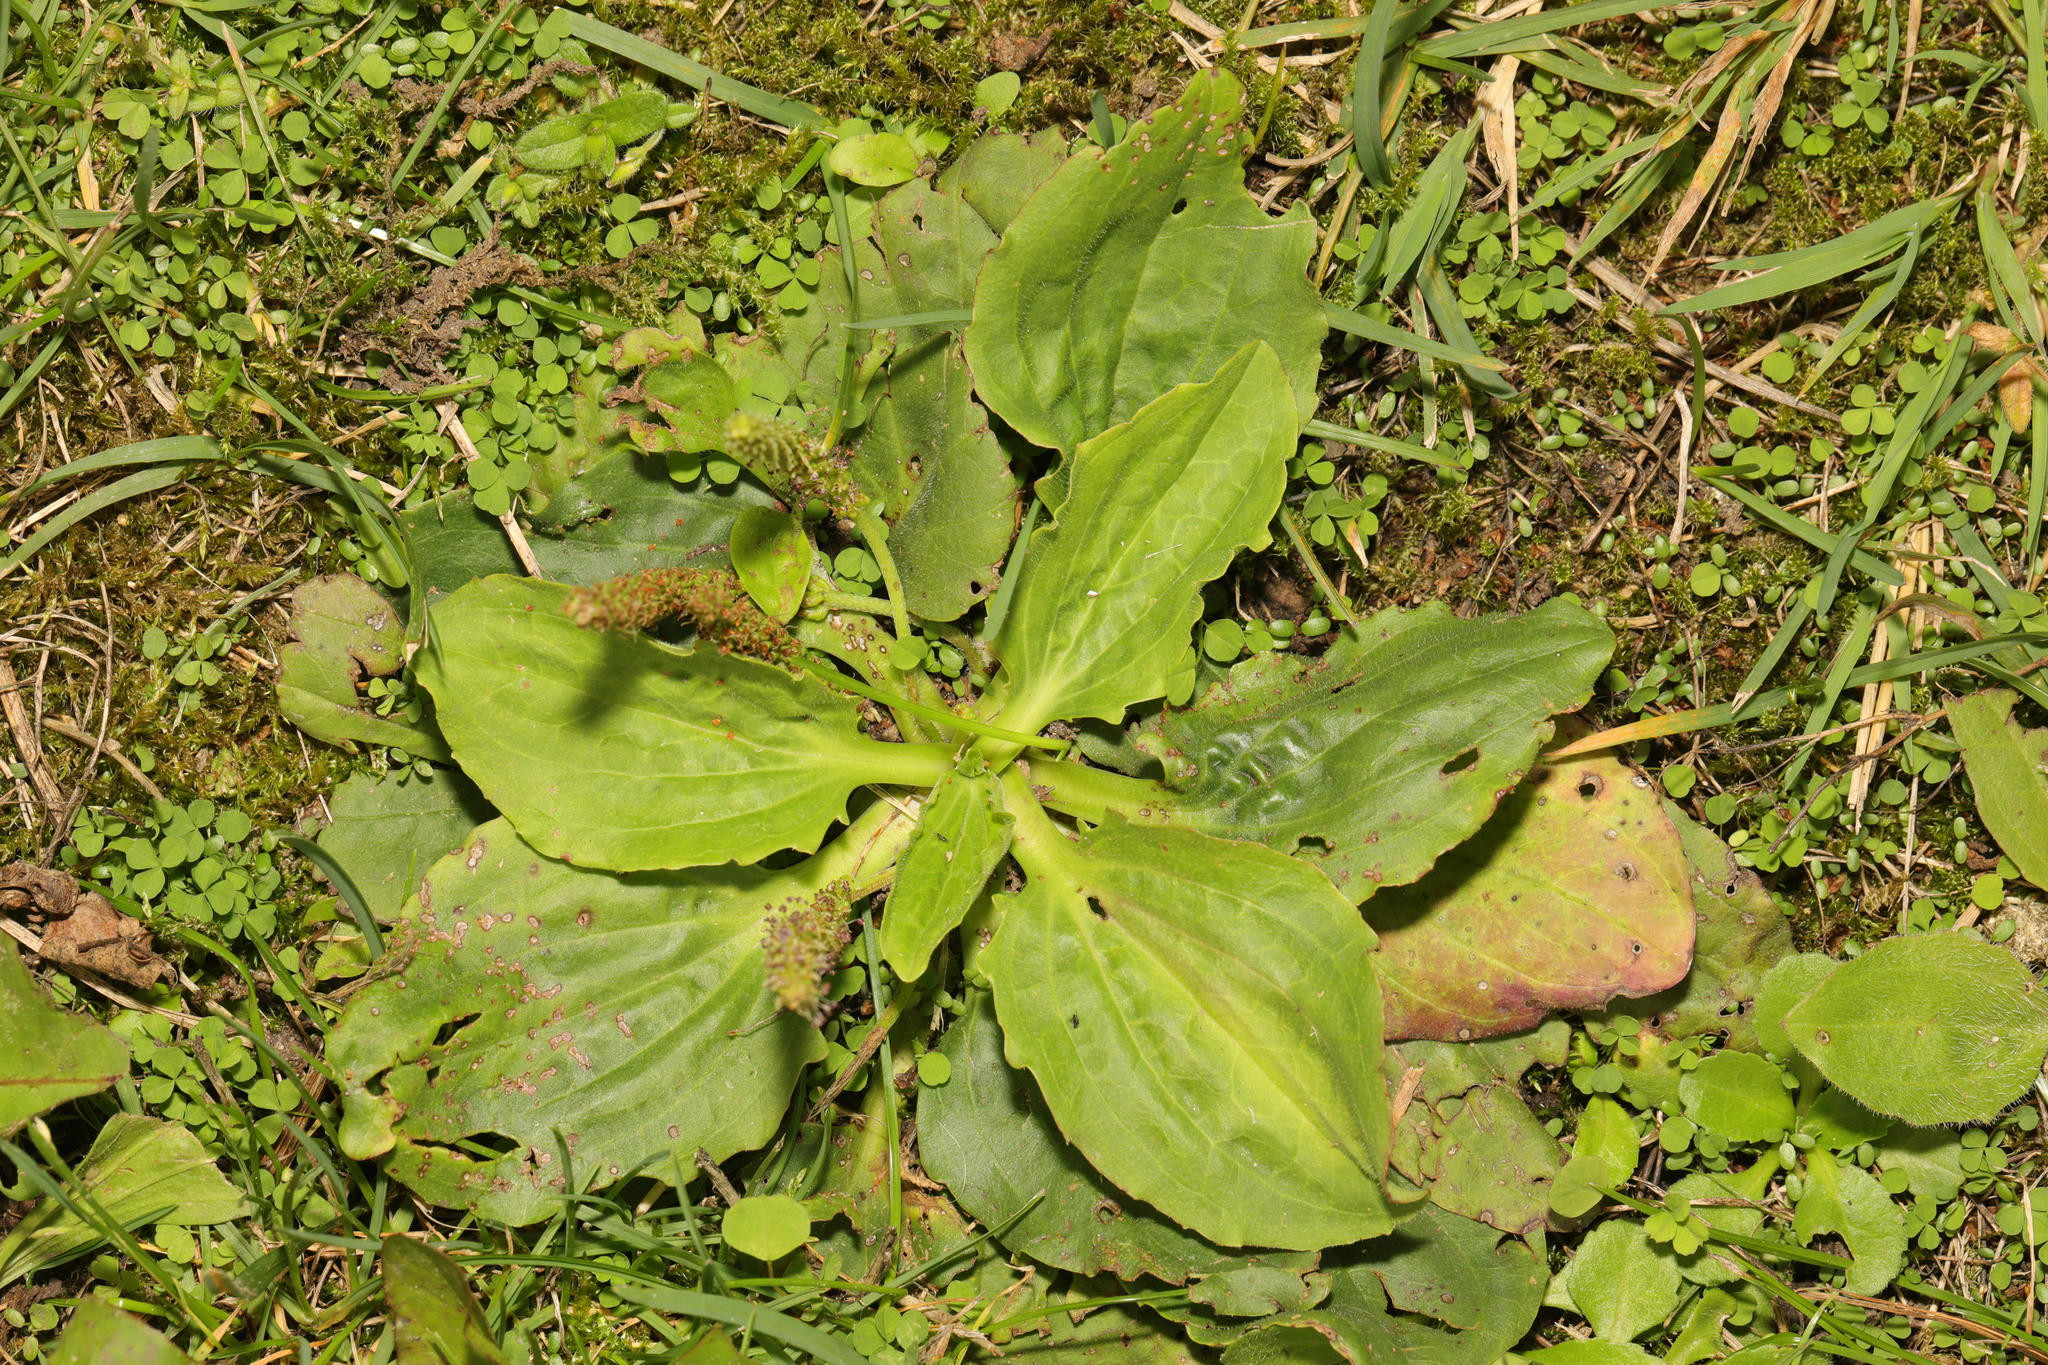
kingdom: Plantae
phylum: Tracheophyta
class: Magnoliopsida
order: Lamiales
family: Plantaginaceae
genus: Plantago
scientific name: Plantago major
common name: Common plantain
